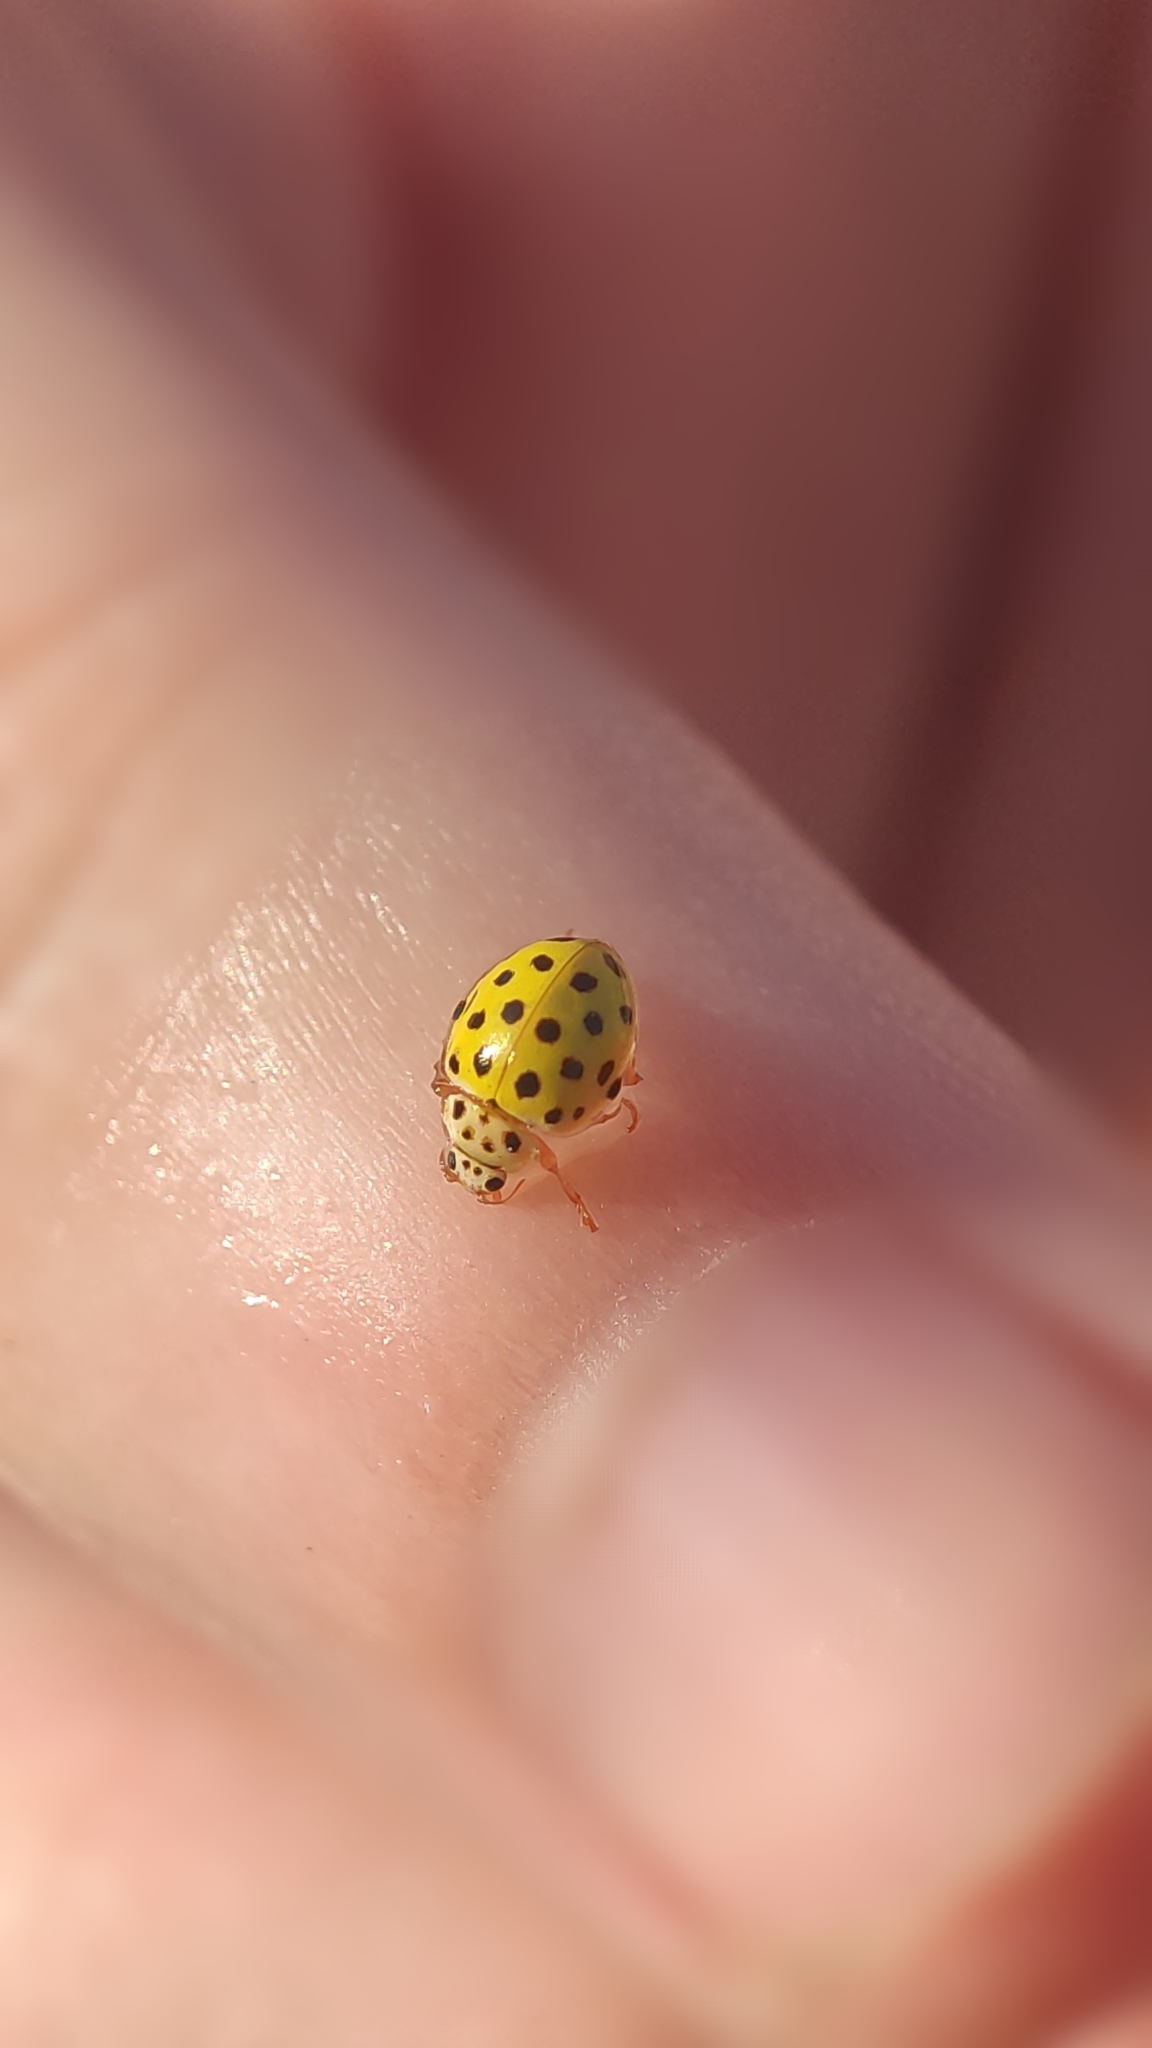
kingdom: Animalia
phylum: Arthropoda
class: Insecta
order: Coleoptera
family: Coccinellidae
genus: Psyllobora
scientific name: Psyllobora vigintiduopunctata
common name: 22-spot ladybird
